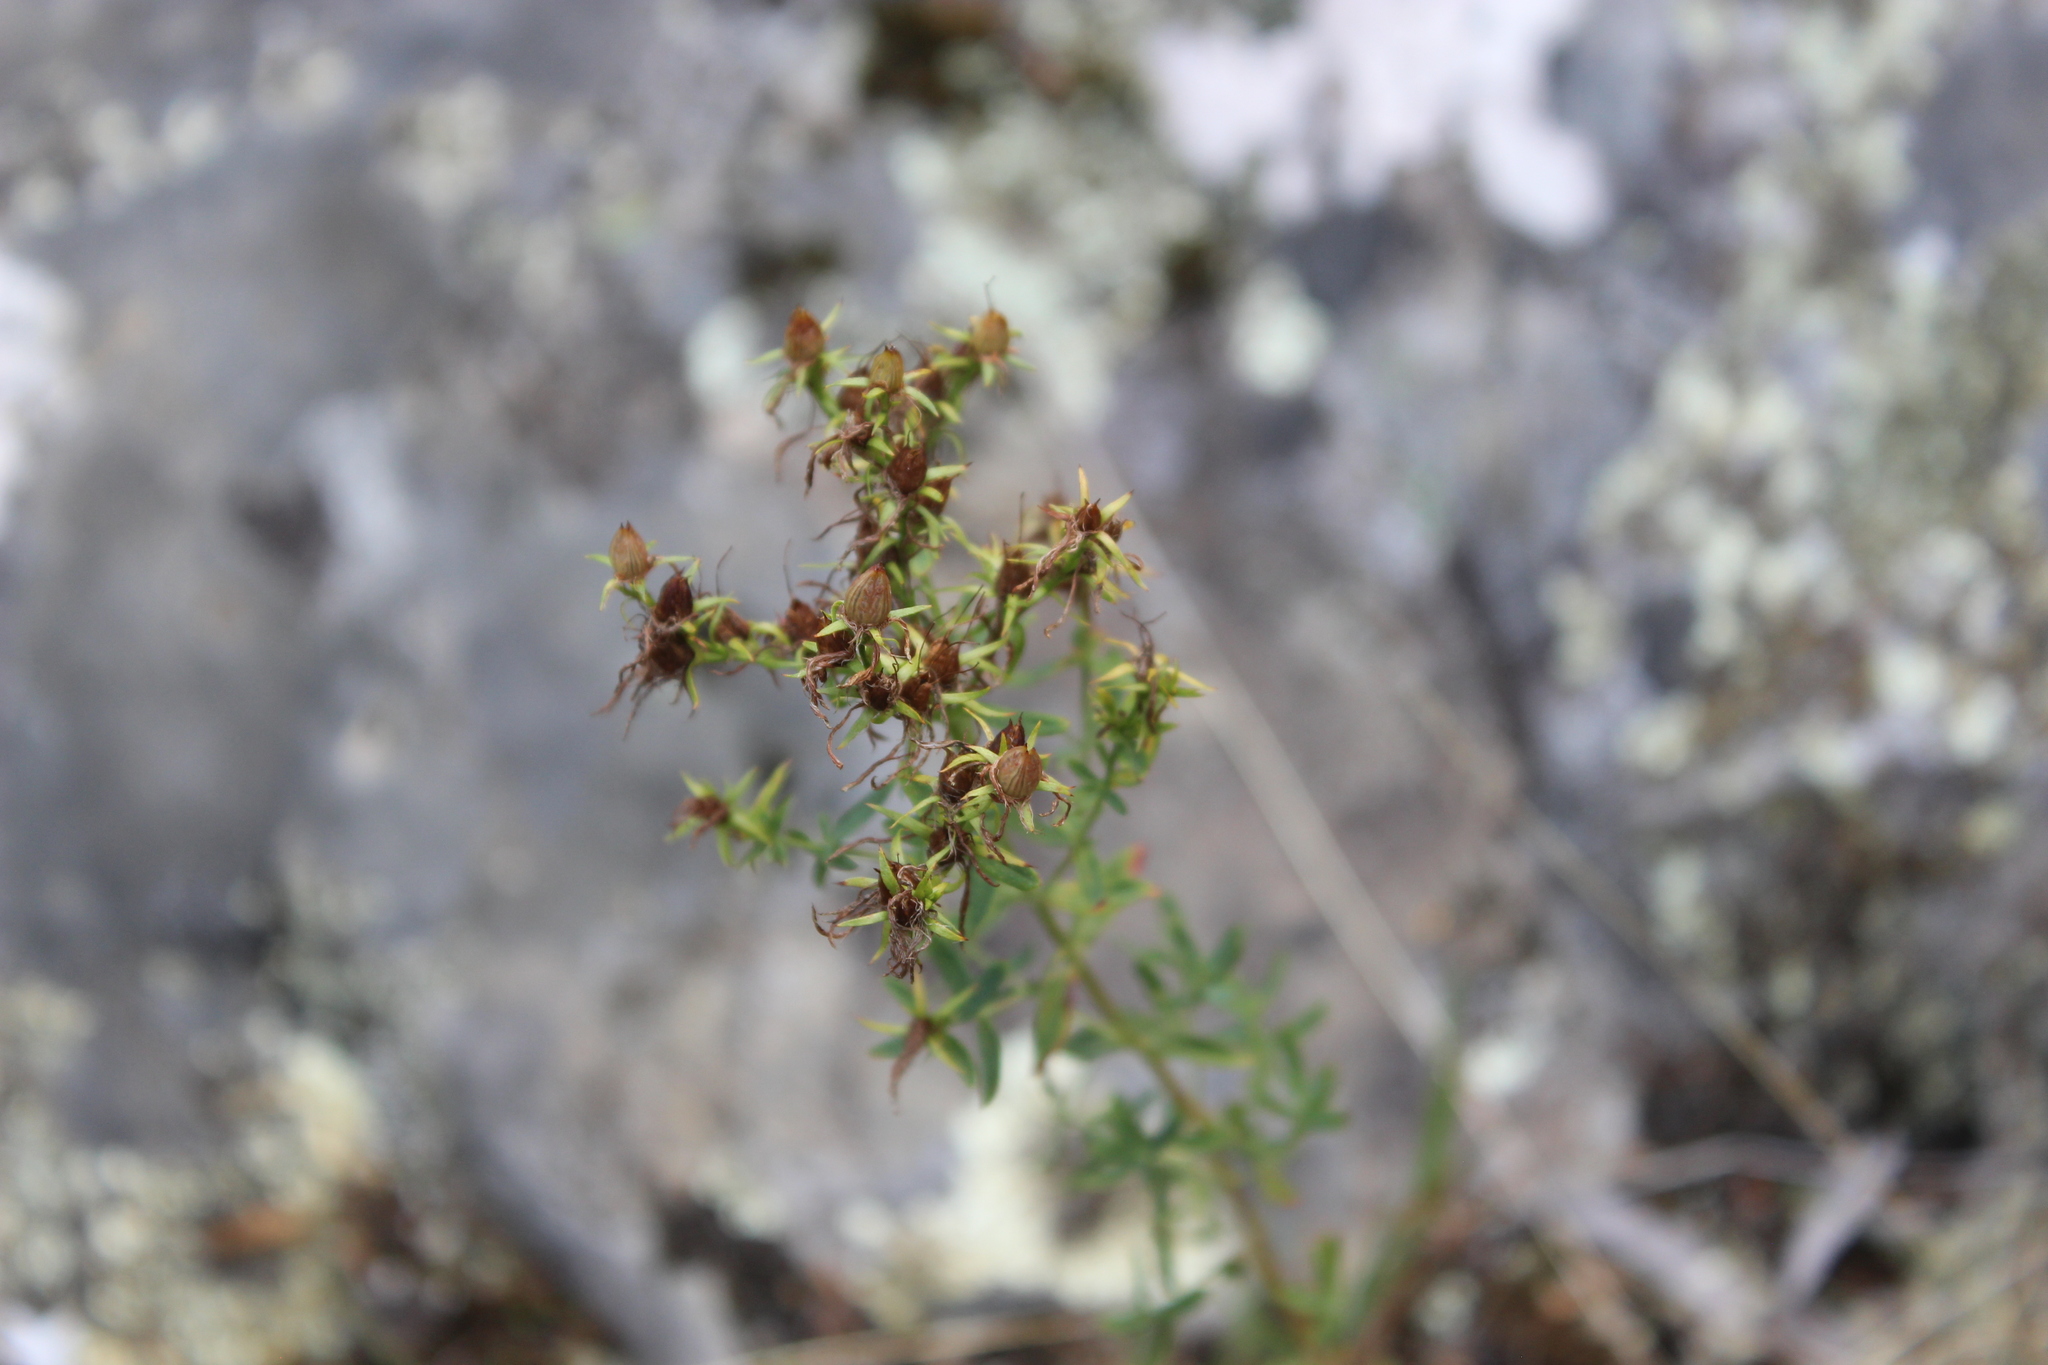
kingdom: Plantae
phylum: Tracheophyta
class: Magnoliopsida
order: Malpighiales
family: Hypericaceae
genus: Hypericum
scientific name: Hypericum perforatum
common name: Common st. johnswort
